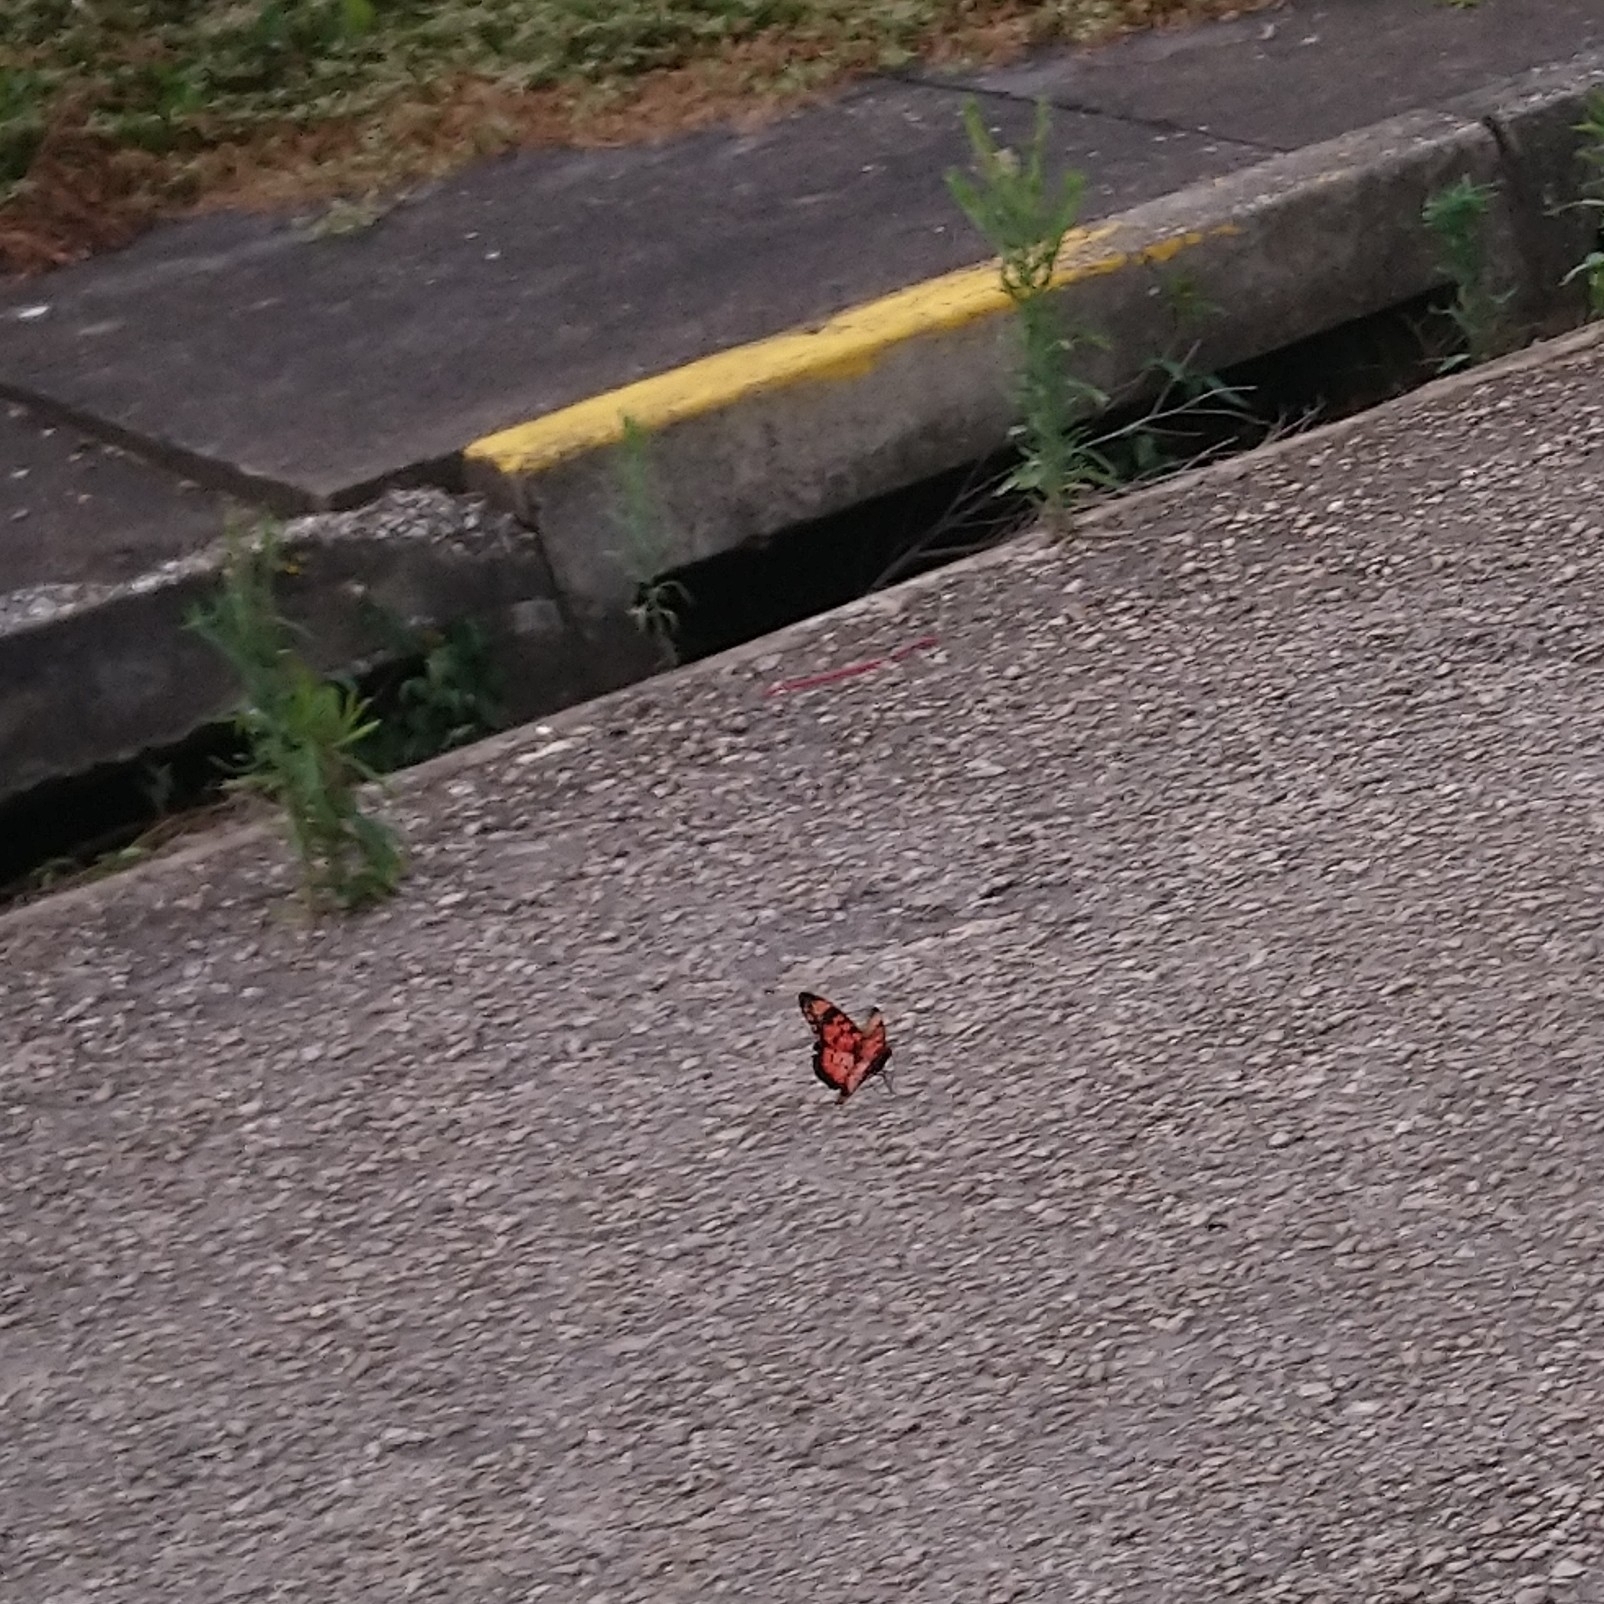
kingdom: Animalia
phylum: Arthropoda
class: Insecta
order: Lepidoptera
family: Nymphalidae
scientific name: Nymphalidae
